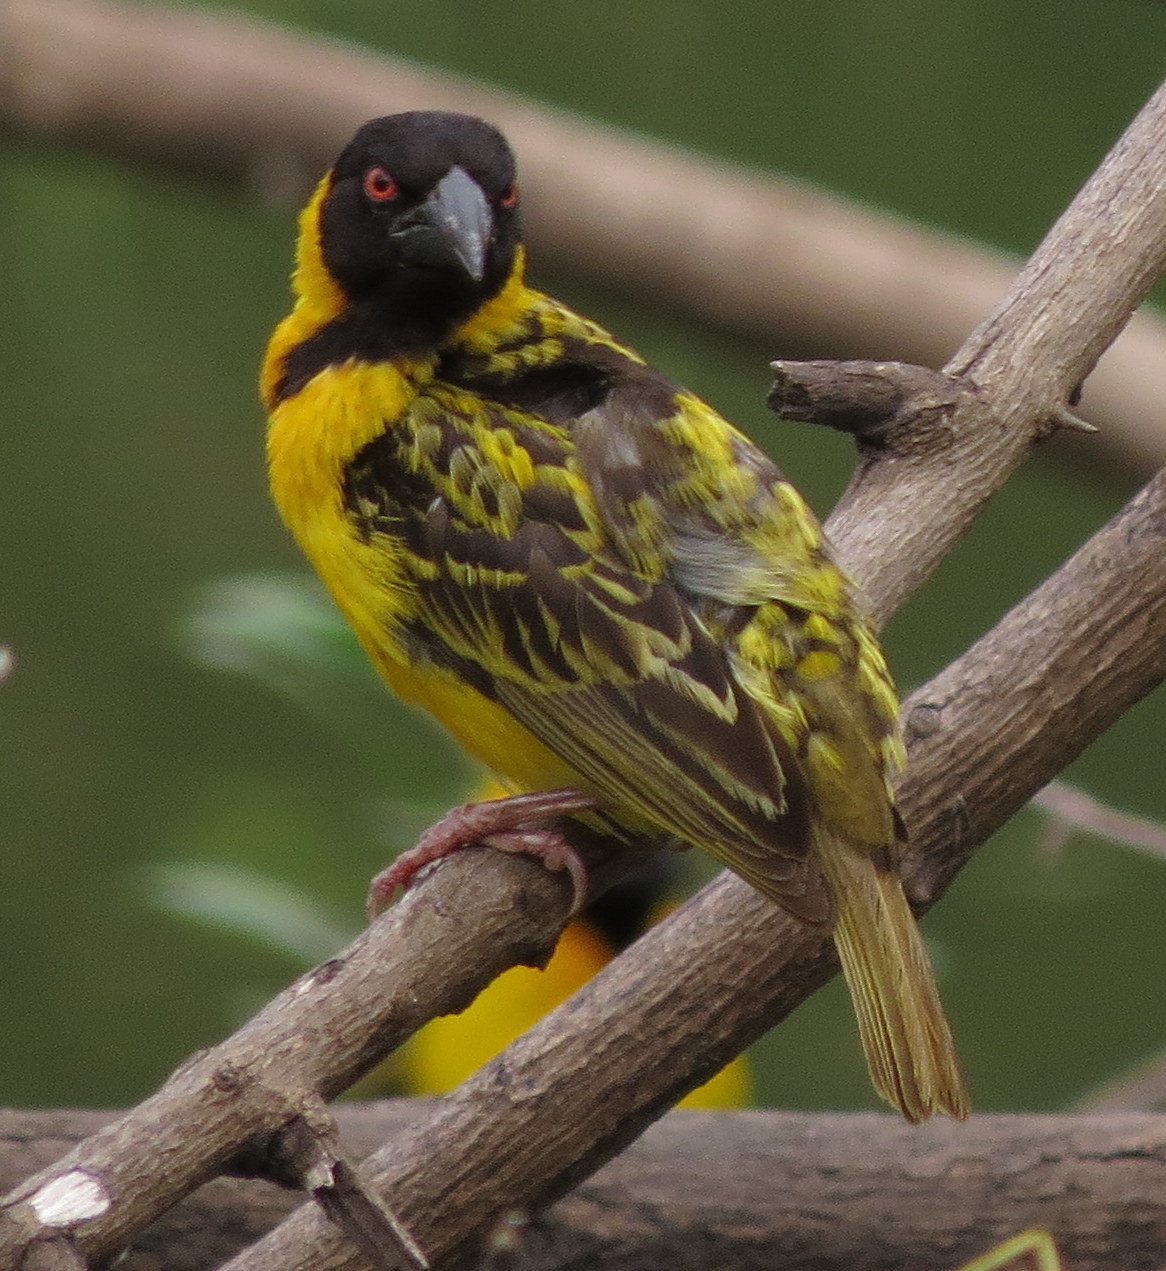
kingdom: Animalia
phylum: Chordata
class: Aves
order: Passeriformes
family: Ploceidae
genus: Ploceus
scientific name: Ploceus cucullatus
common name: Village weaver
